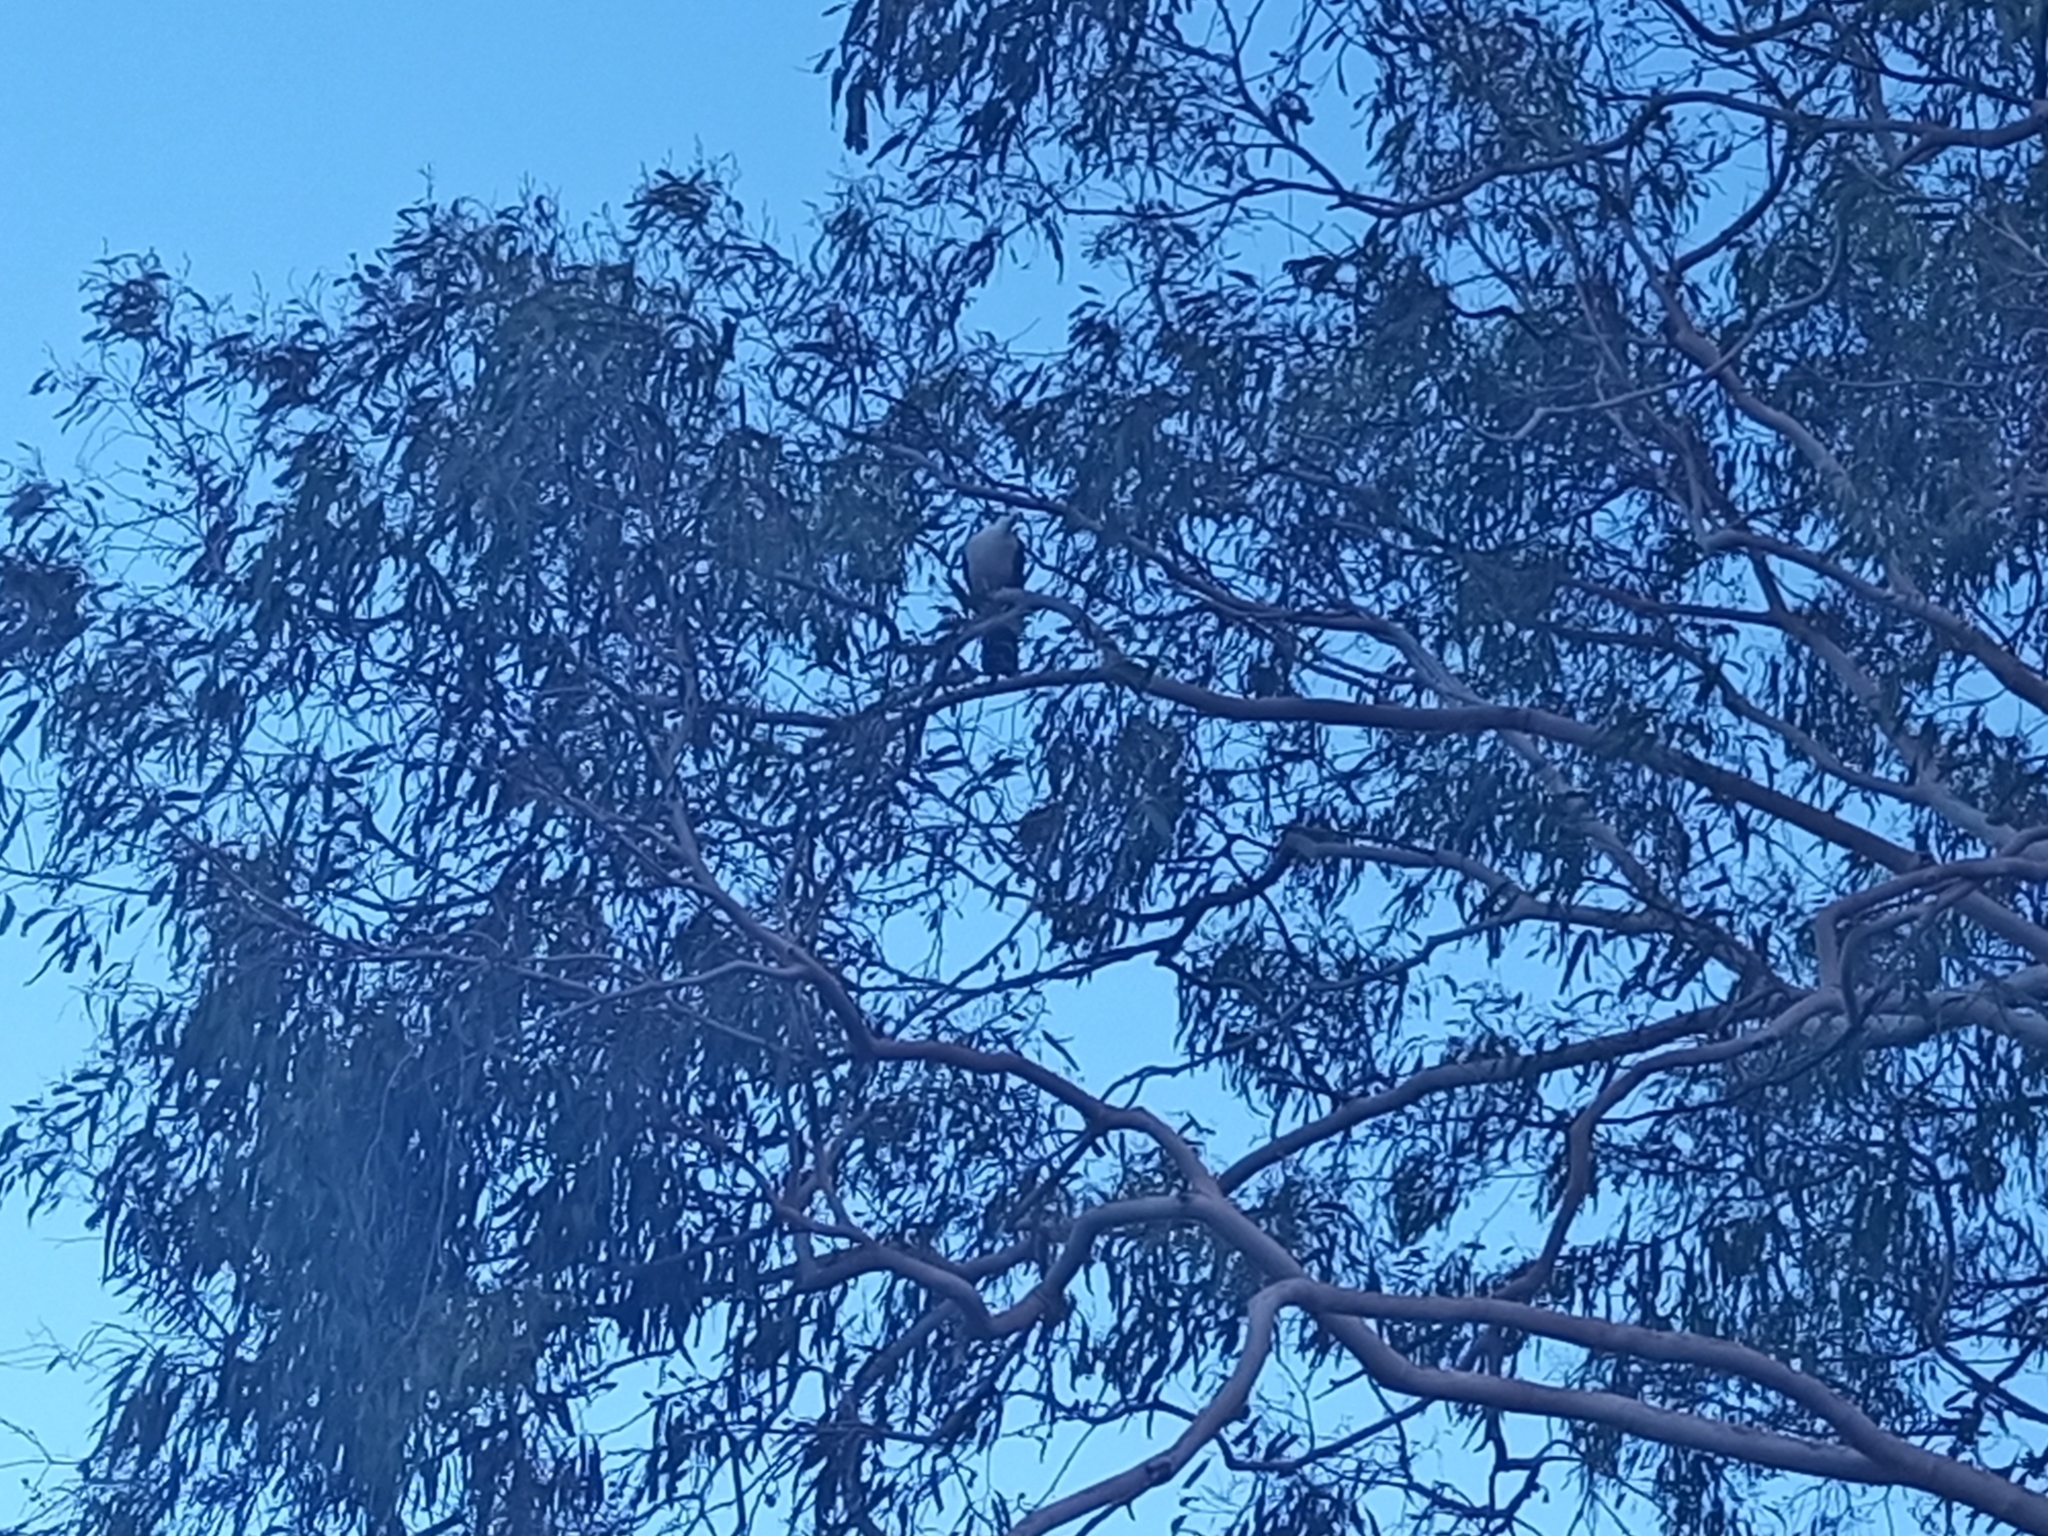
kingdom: Animalia
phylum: Chordata
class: Aves
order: Columbiformes
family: Columbidae
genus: Columba
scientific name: Columba leucomela
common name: White-headed pigeon
